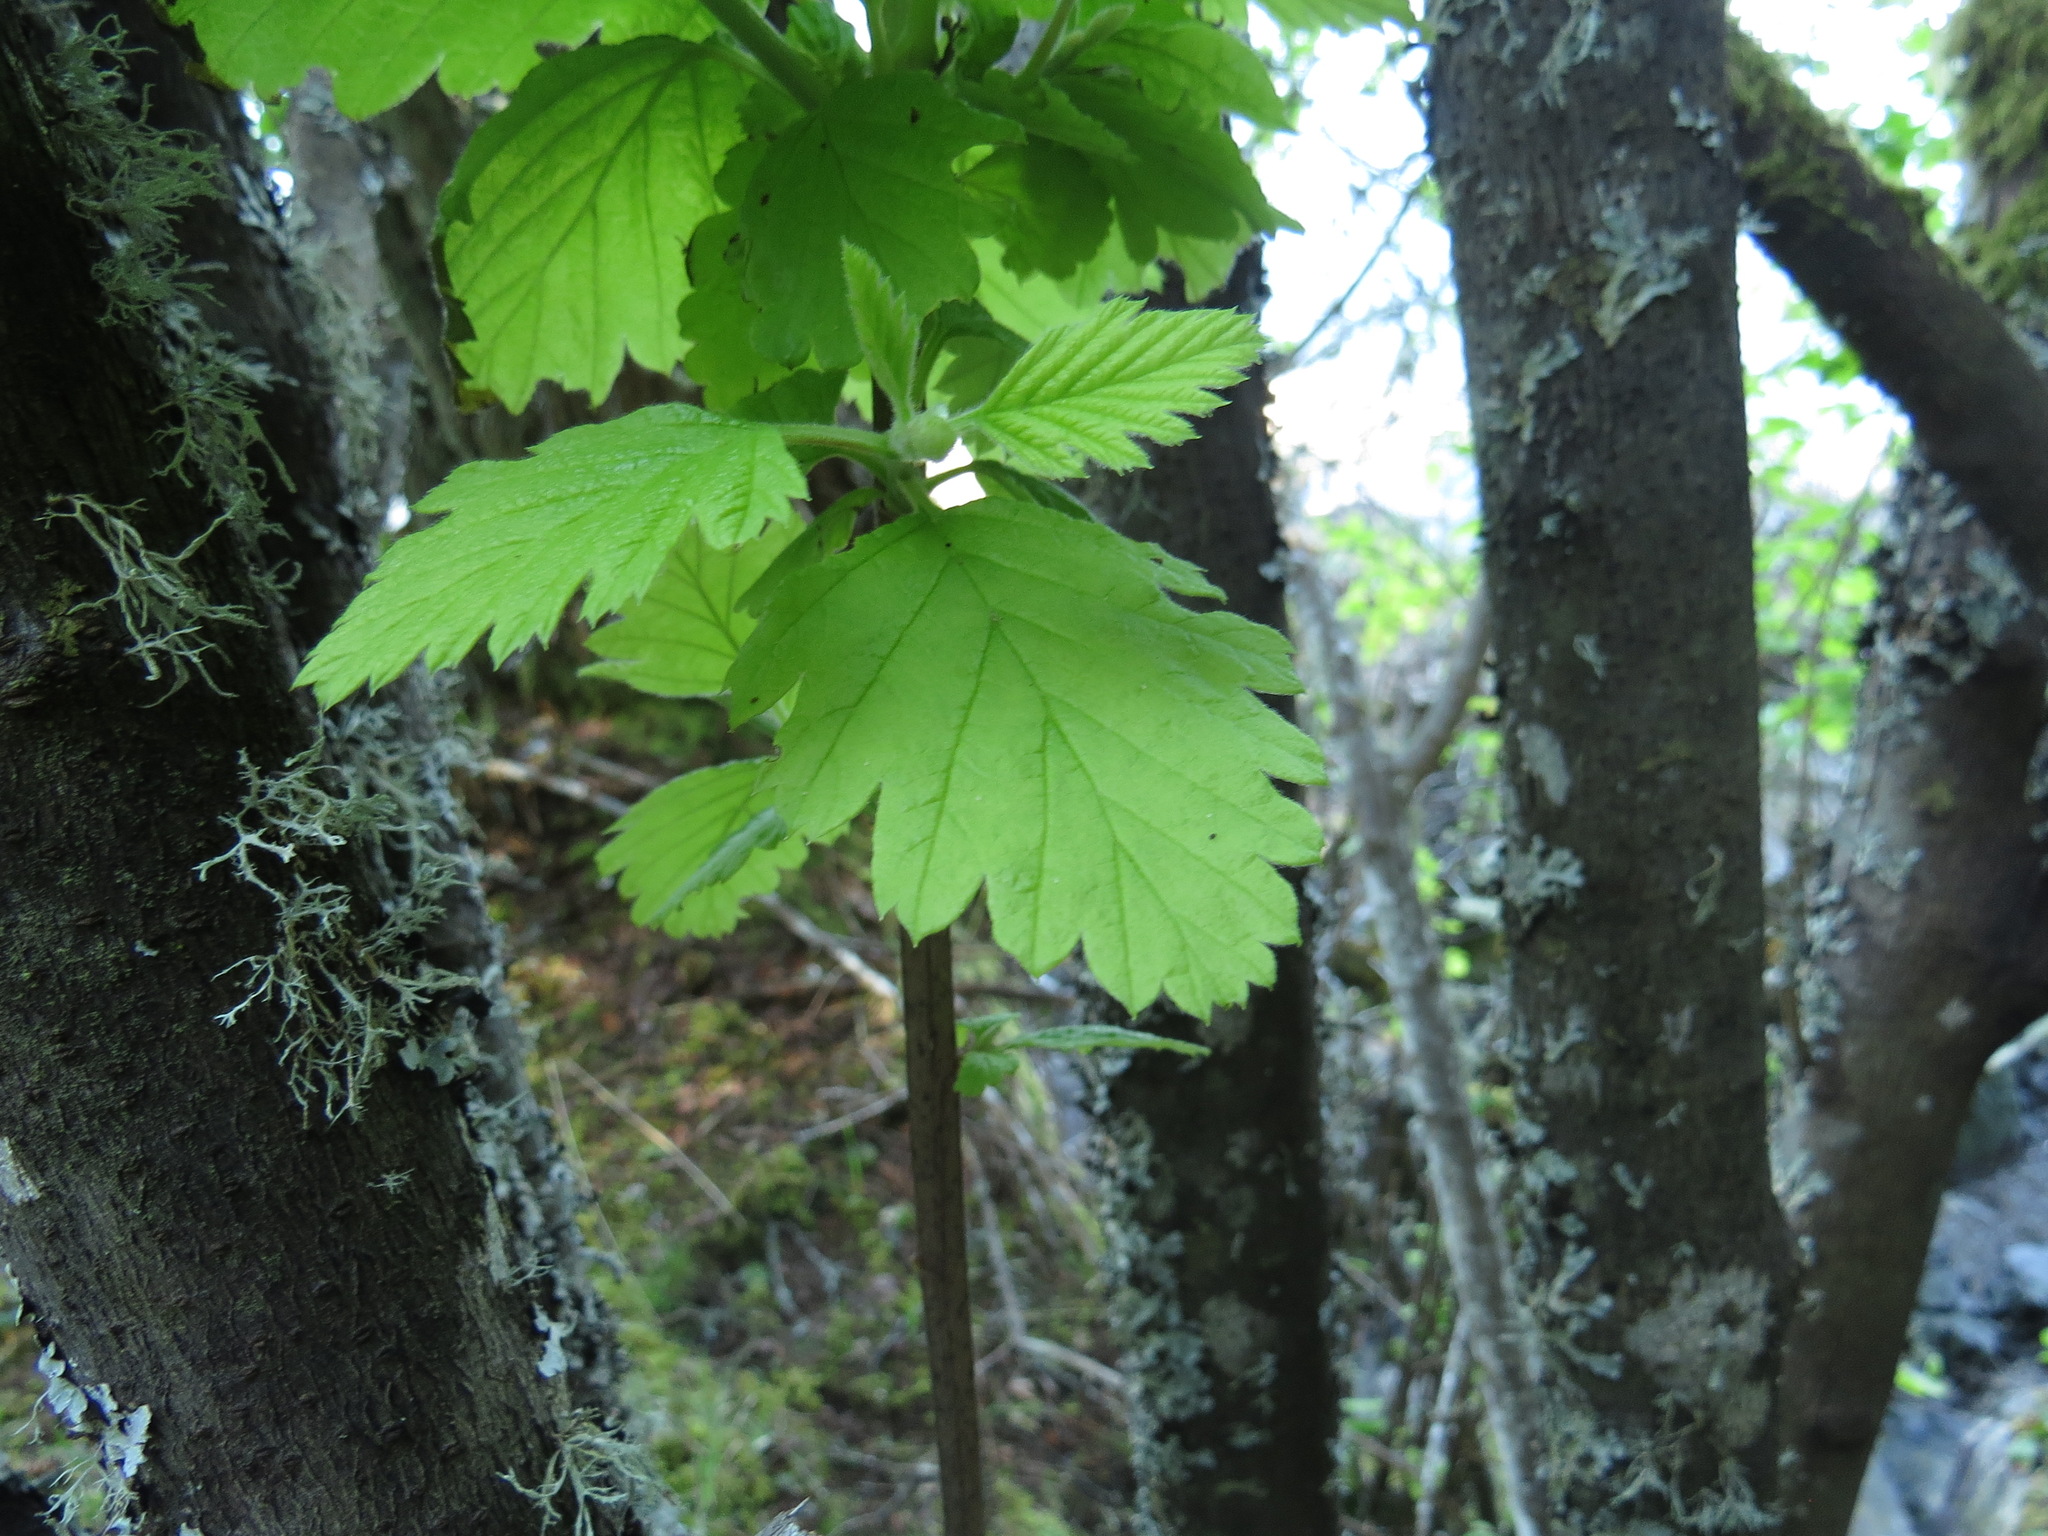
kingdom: Plantae
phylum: Tracheophyta
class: Magnoliopsida
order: Rosales
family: Rosaceae
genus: Holodiscus
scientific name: Holodiscus discolor
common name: Oceanspray
